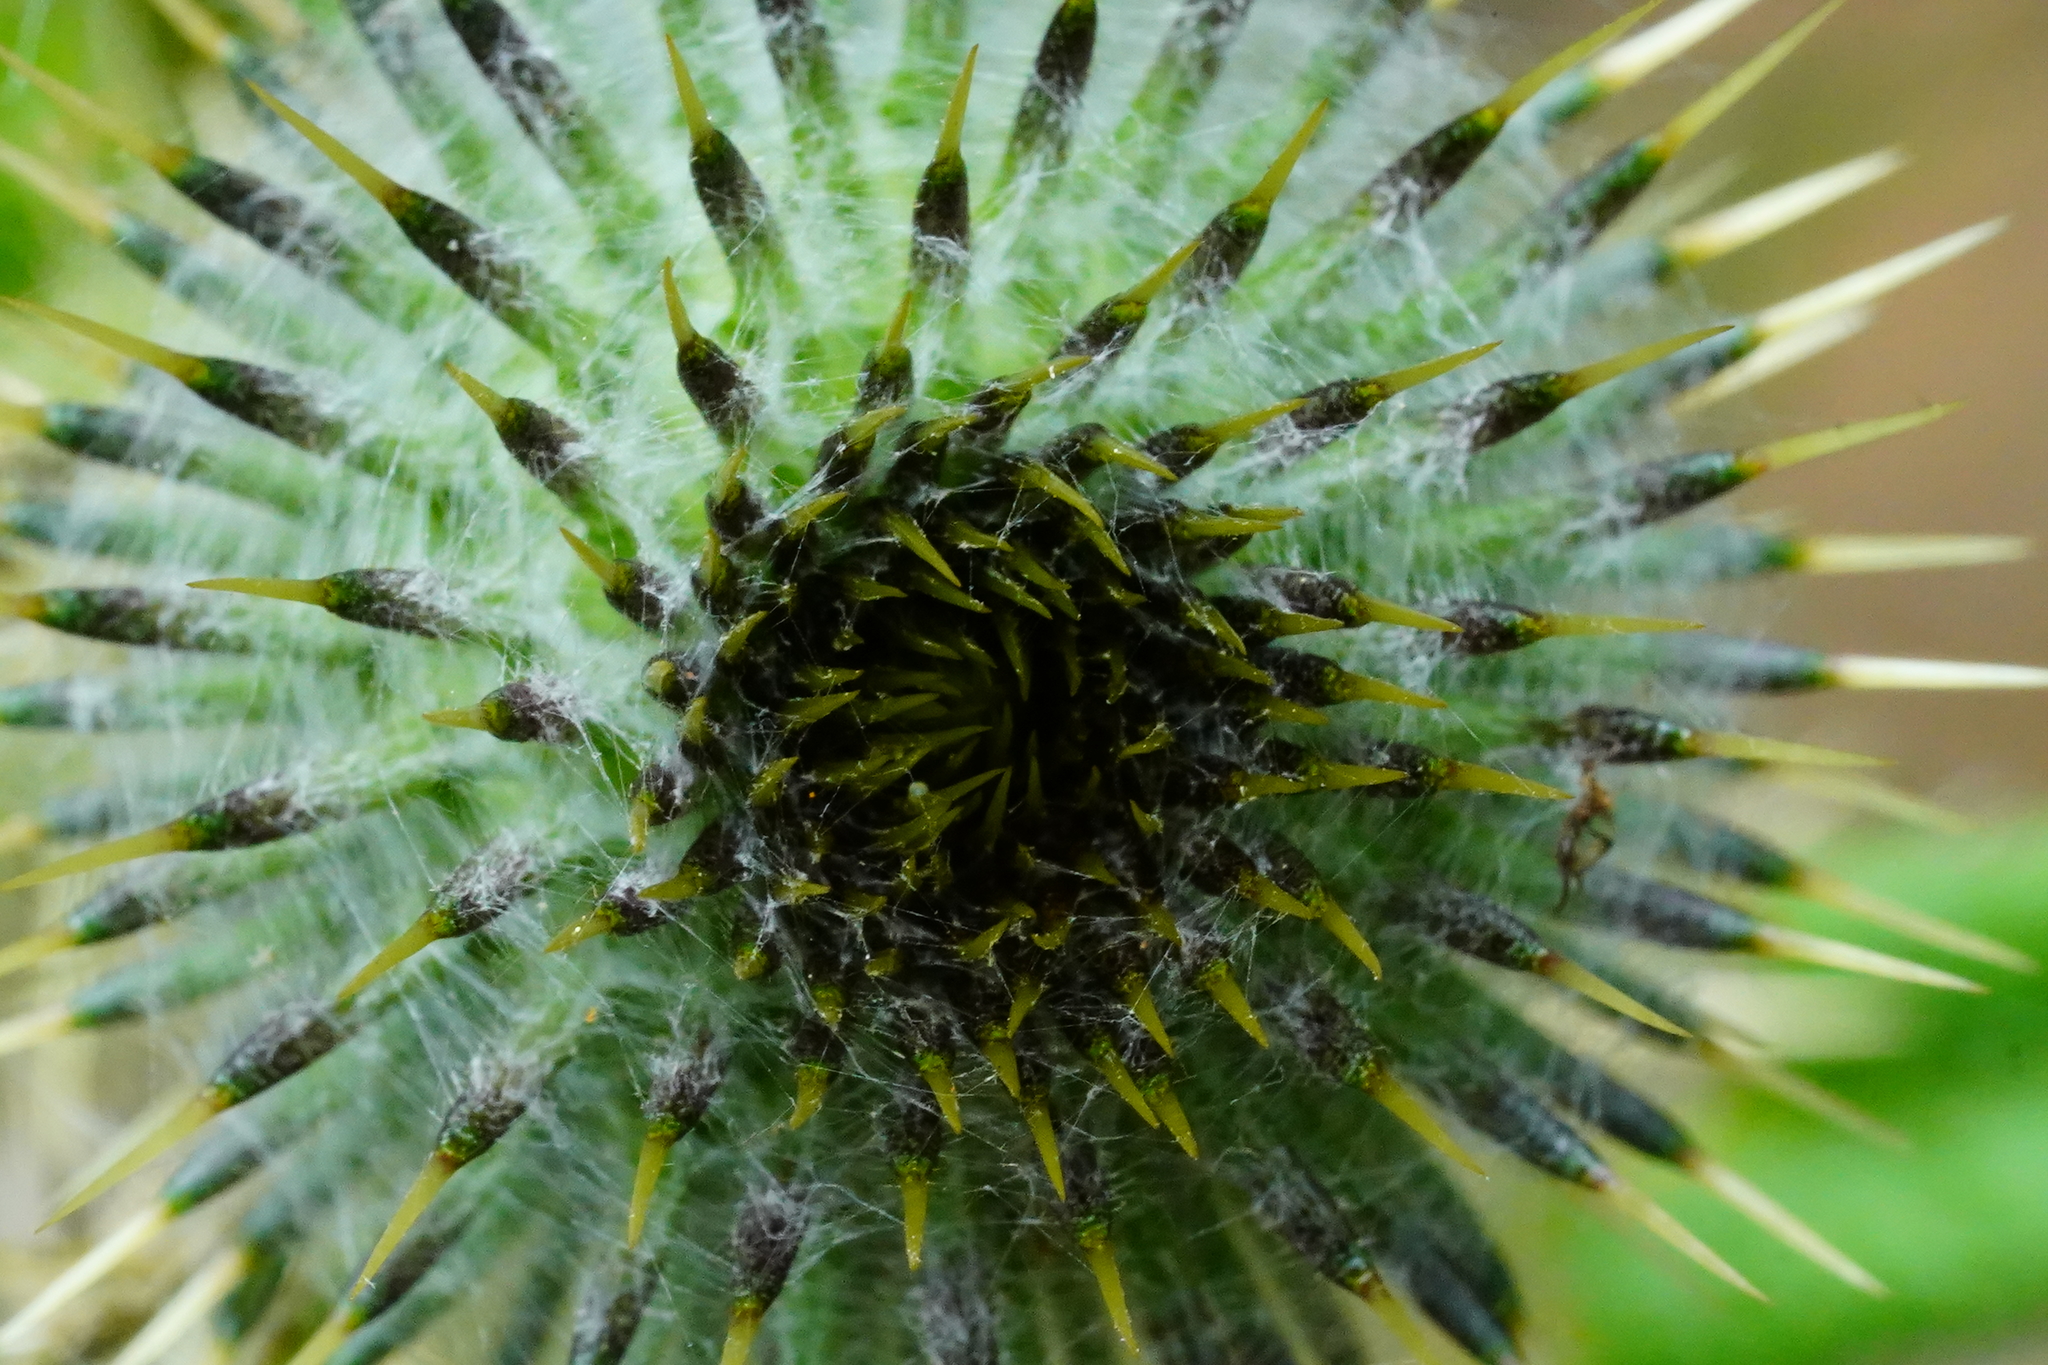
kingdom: Plantae
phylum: Tracheophyta
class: Magnoliopsida
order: Asterales
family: Asteraceae
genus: Cirsium
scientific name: Cirsium vulgare
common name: Bull thistle
